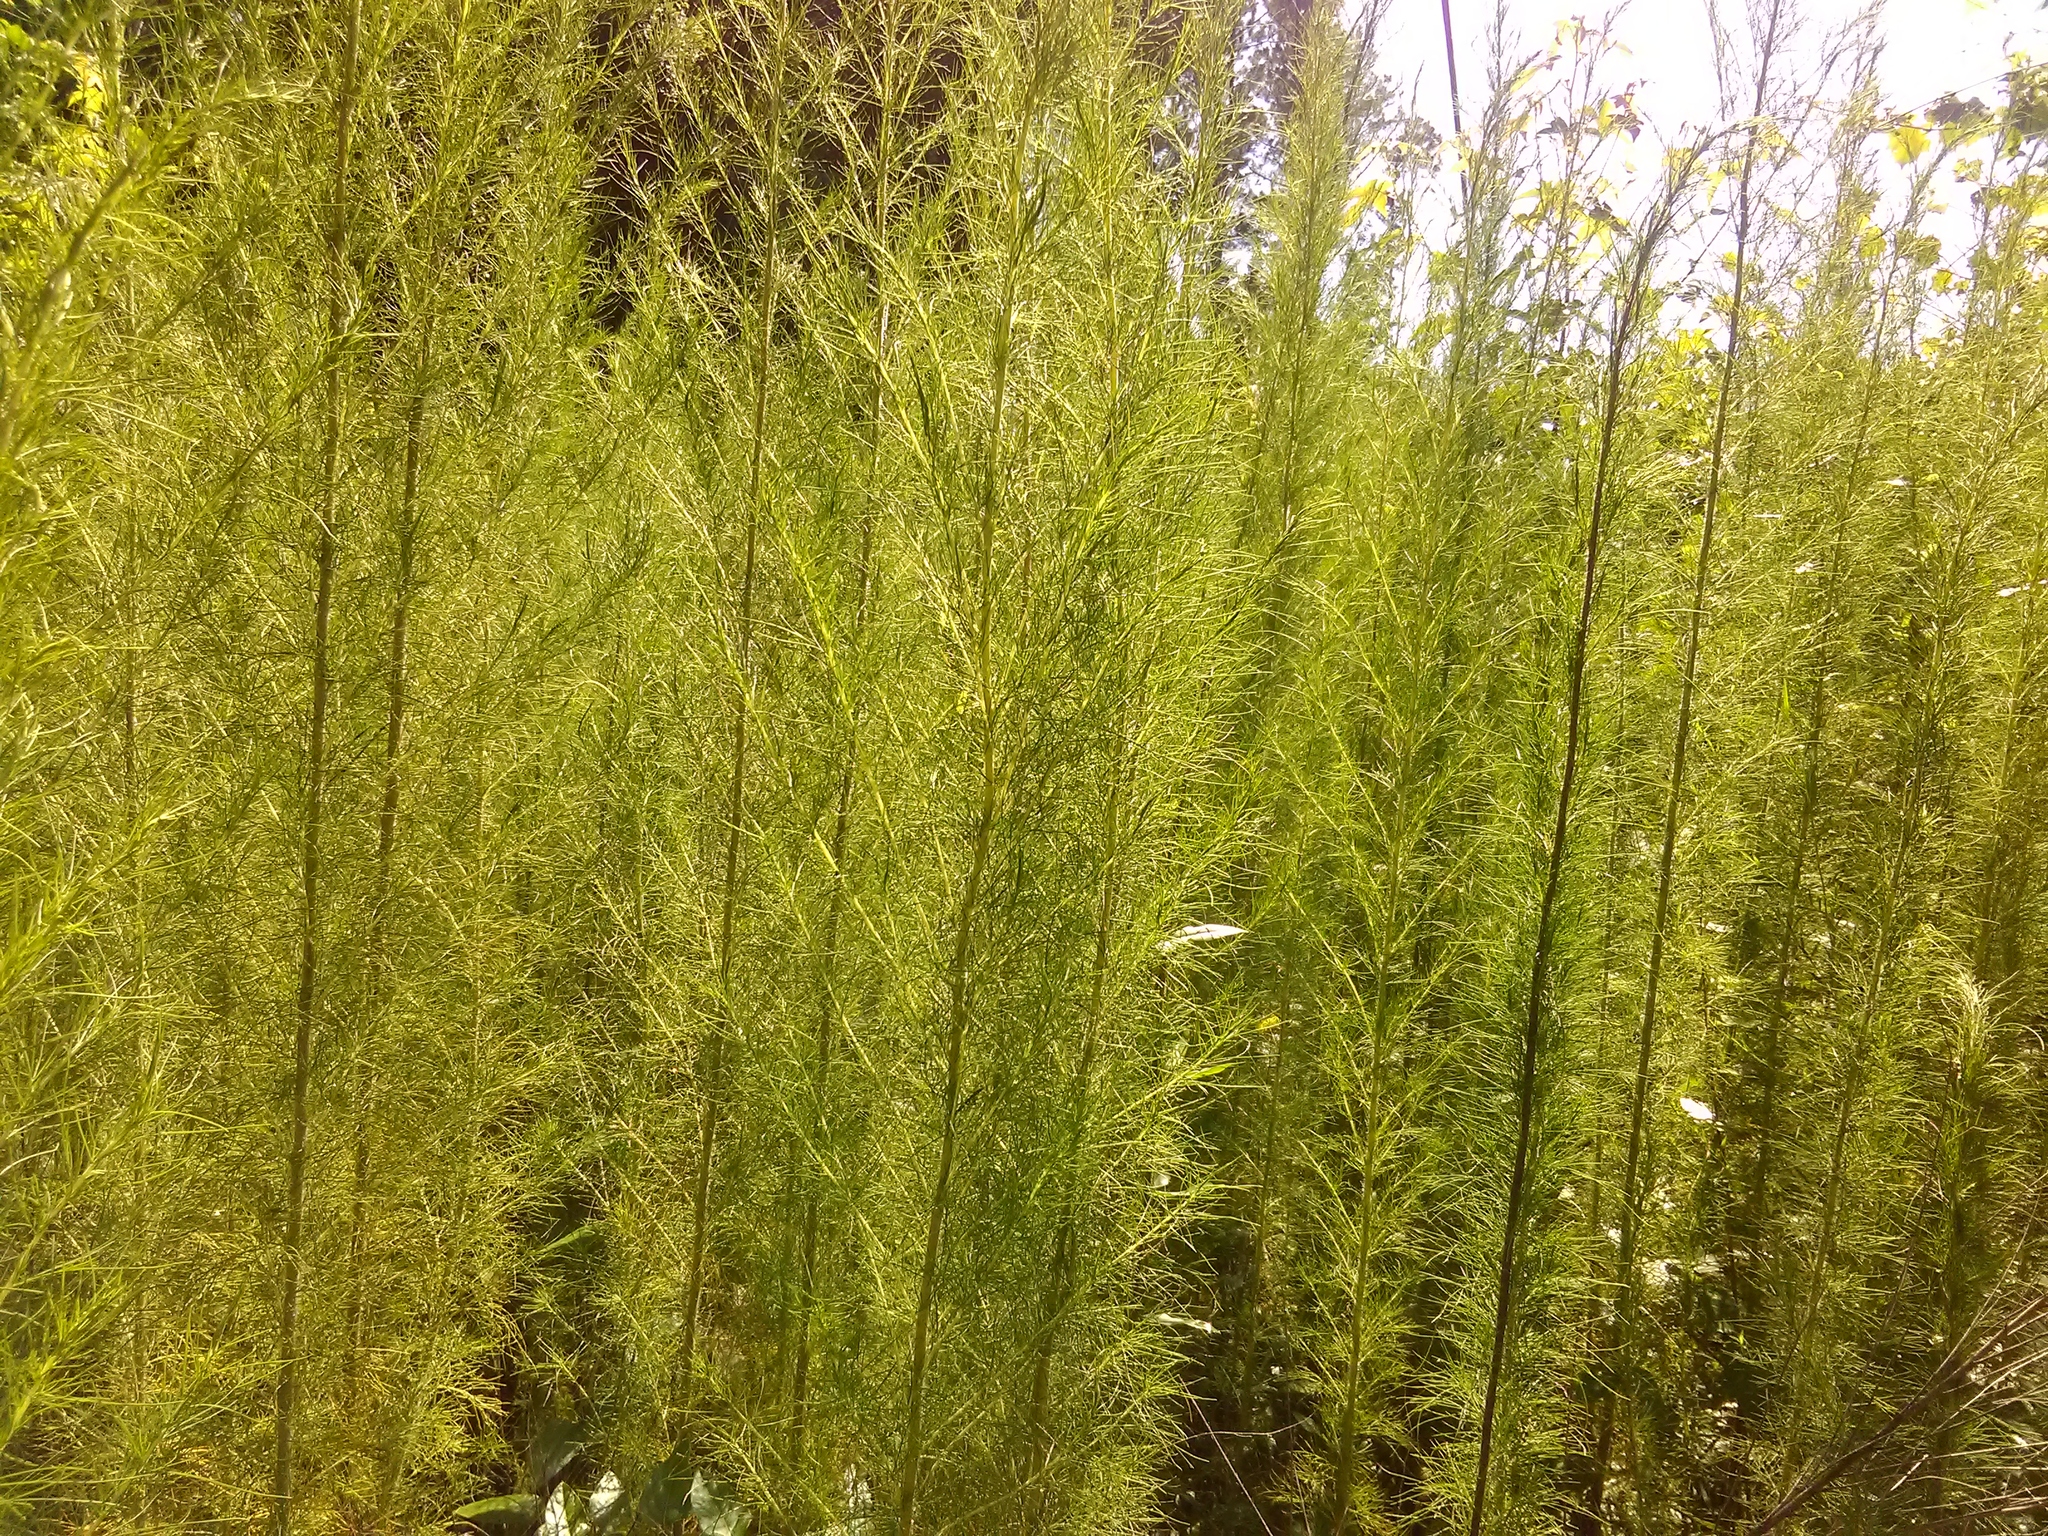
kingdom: Plantae
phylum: Tracheophyta
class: Magnoliopsida
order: Asterales
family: Asteraceae
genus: Eupatorium
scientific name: Eupatorium capillifolium
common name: Dog-fennel
